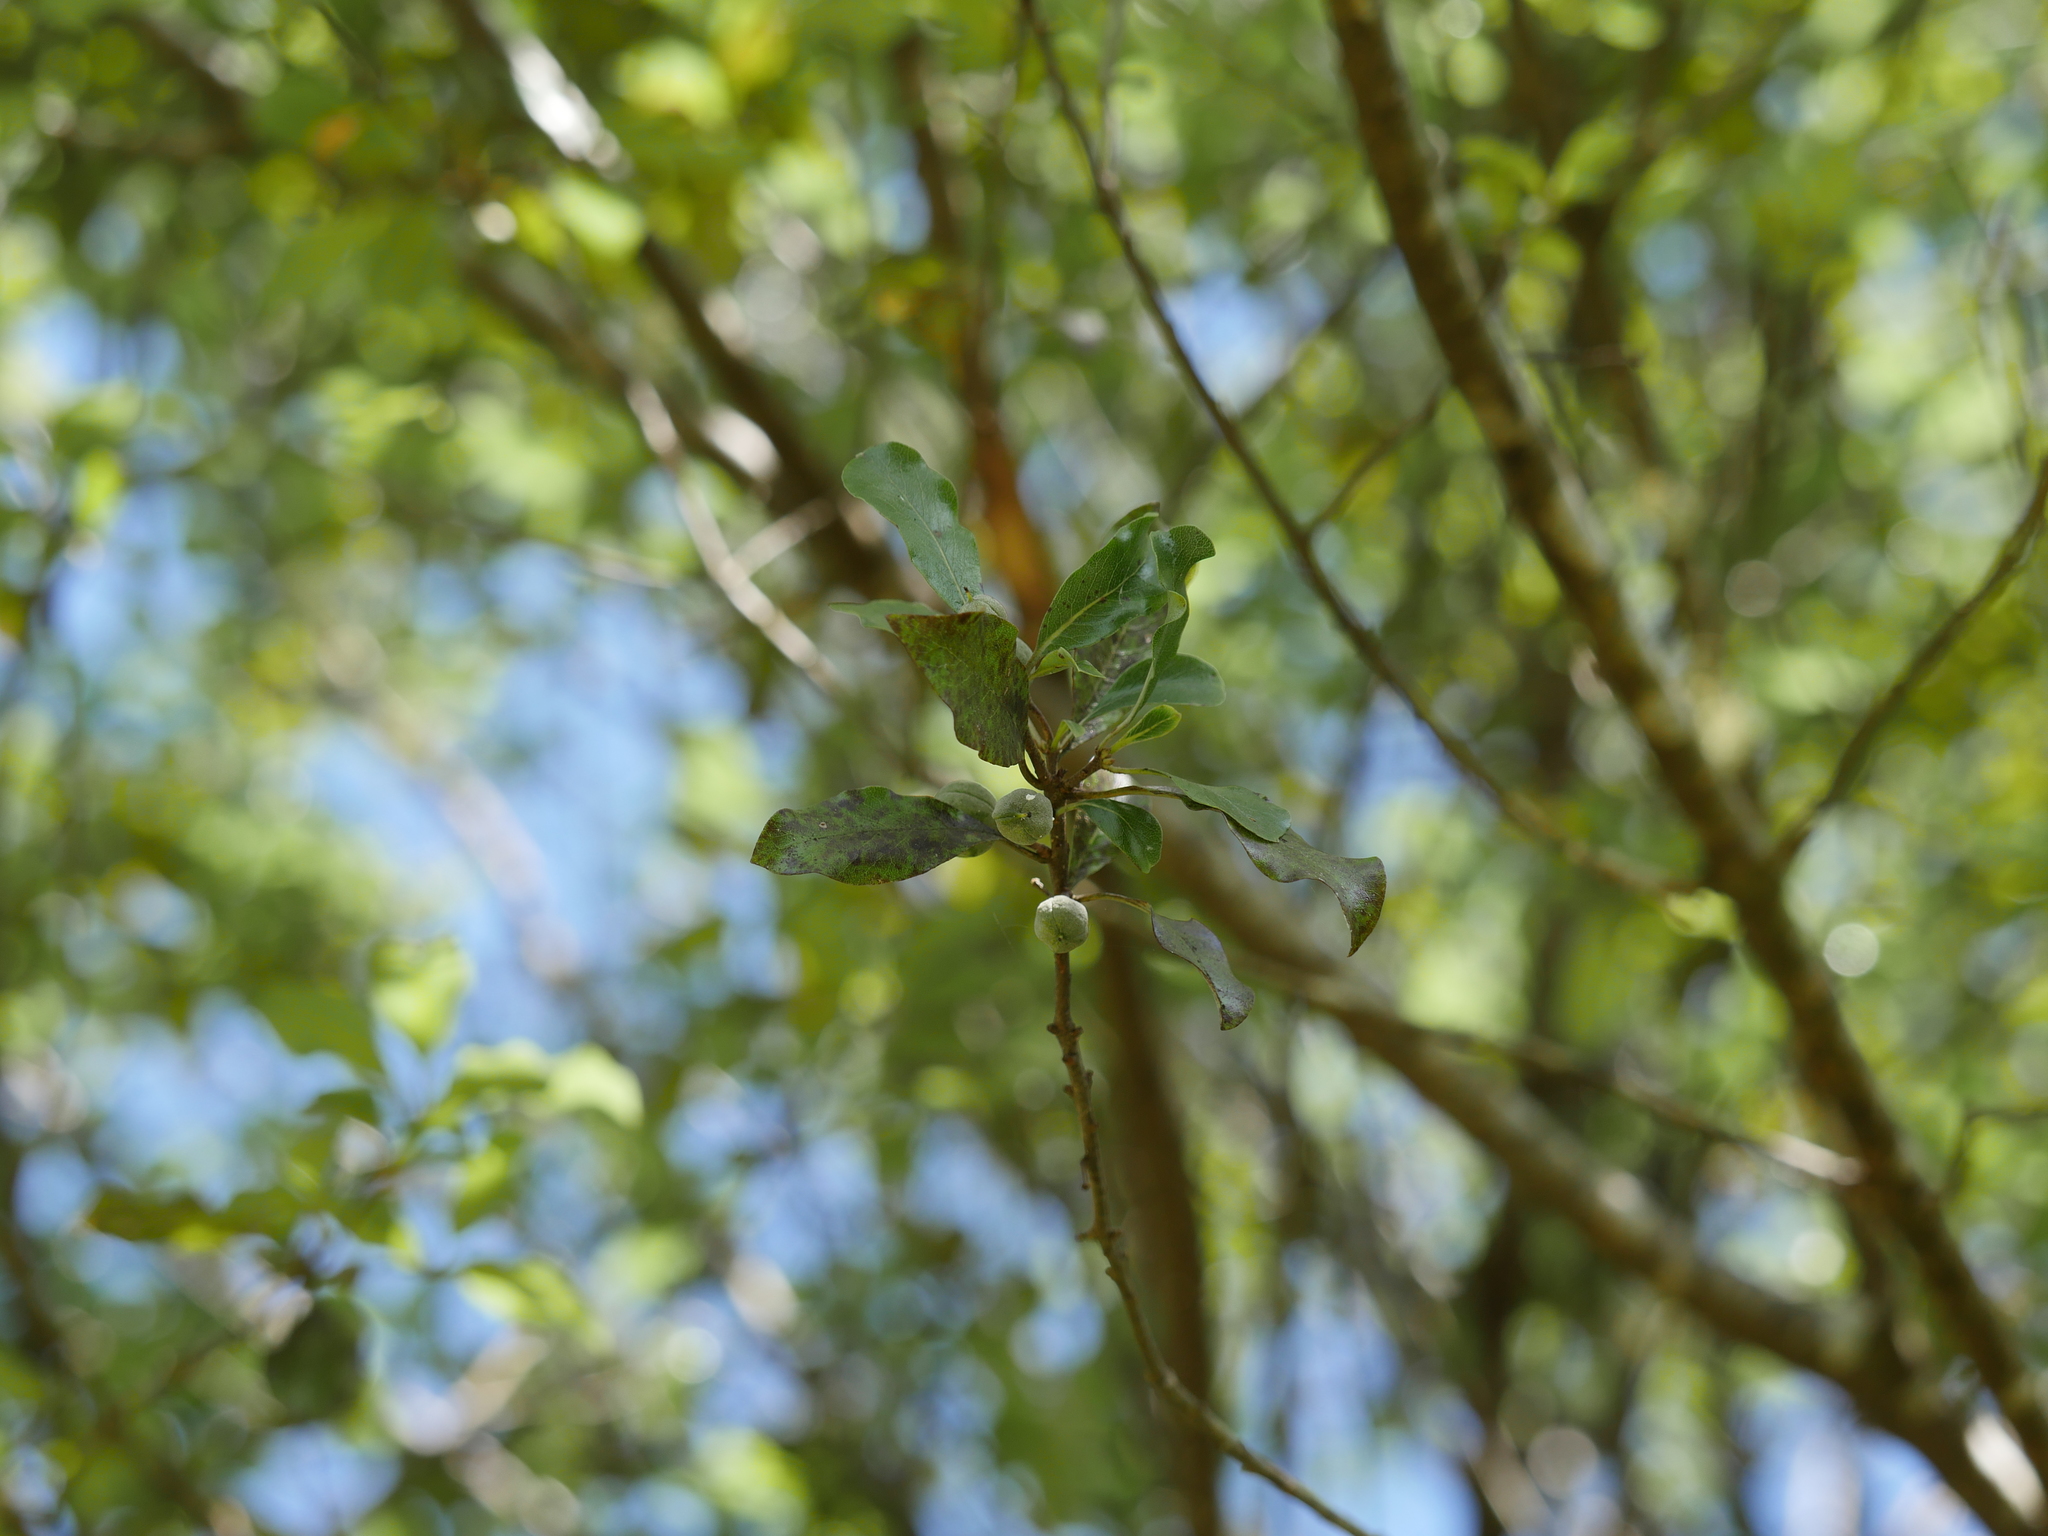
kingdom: Plantae
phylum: Tracheophyta
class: Magnoliopsida
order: Apiales
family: Pittosporaceae
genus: Pittosporum
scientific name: Pittosporum tenuifolium
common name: Kohuhu
